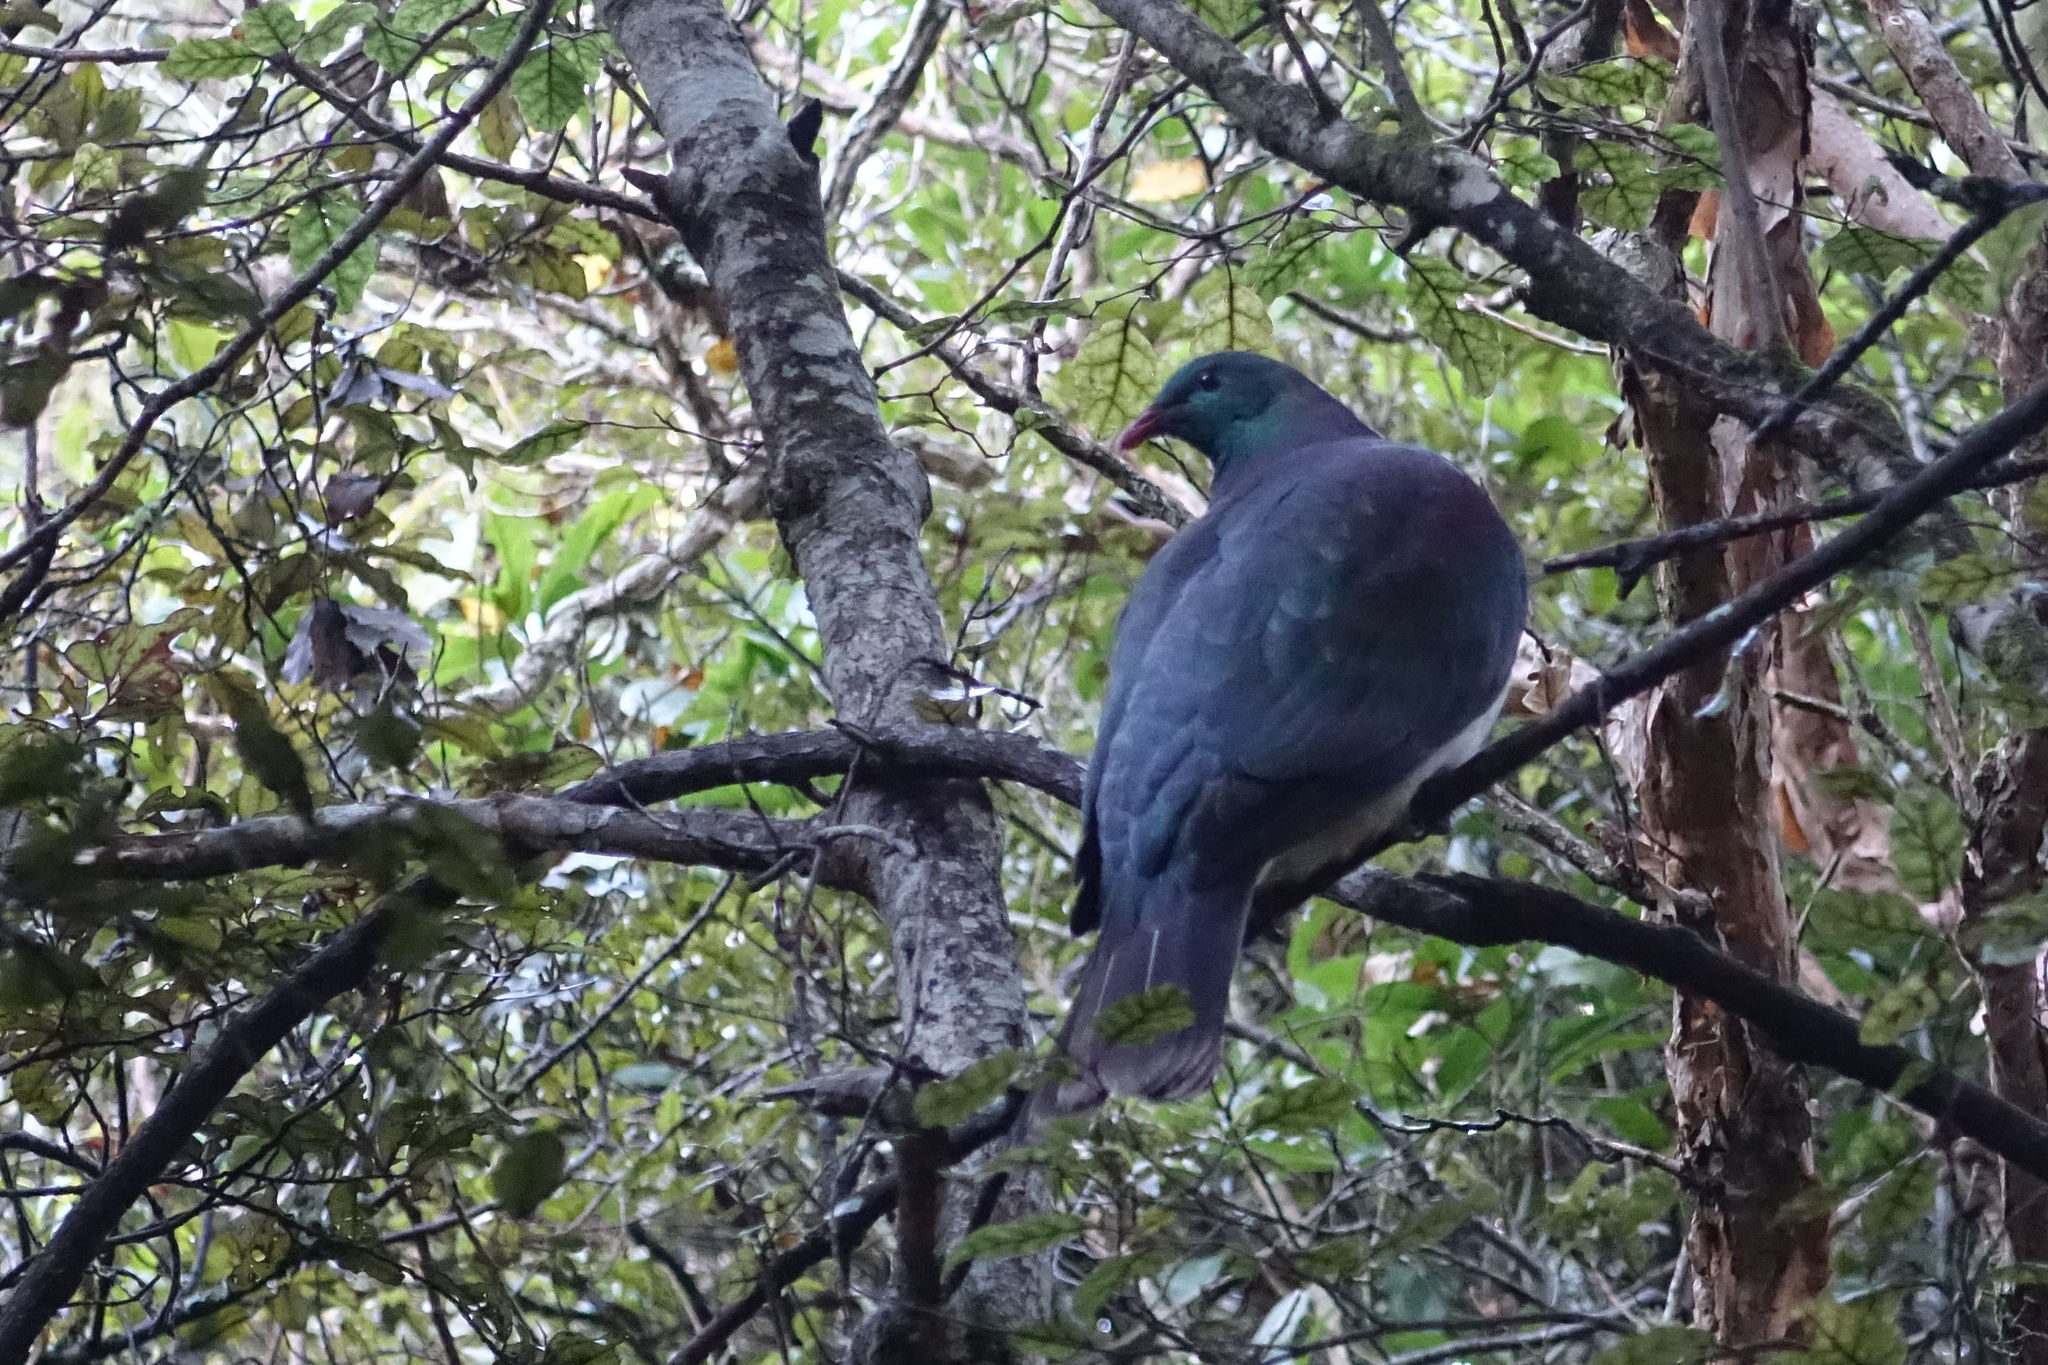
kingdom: Animalia
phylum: Chordata
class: Aves
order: Columbiformes
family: Columbidae
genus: Hemiphaga
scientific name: Hemiphaga novaeseelandiae
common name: New zealand pigeon
